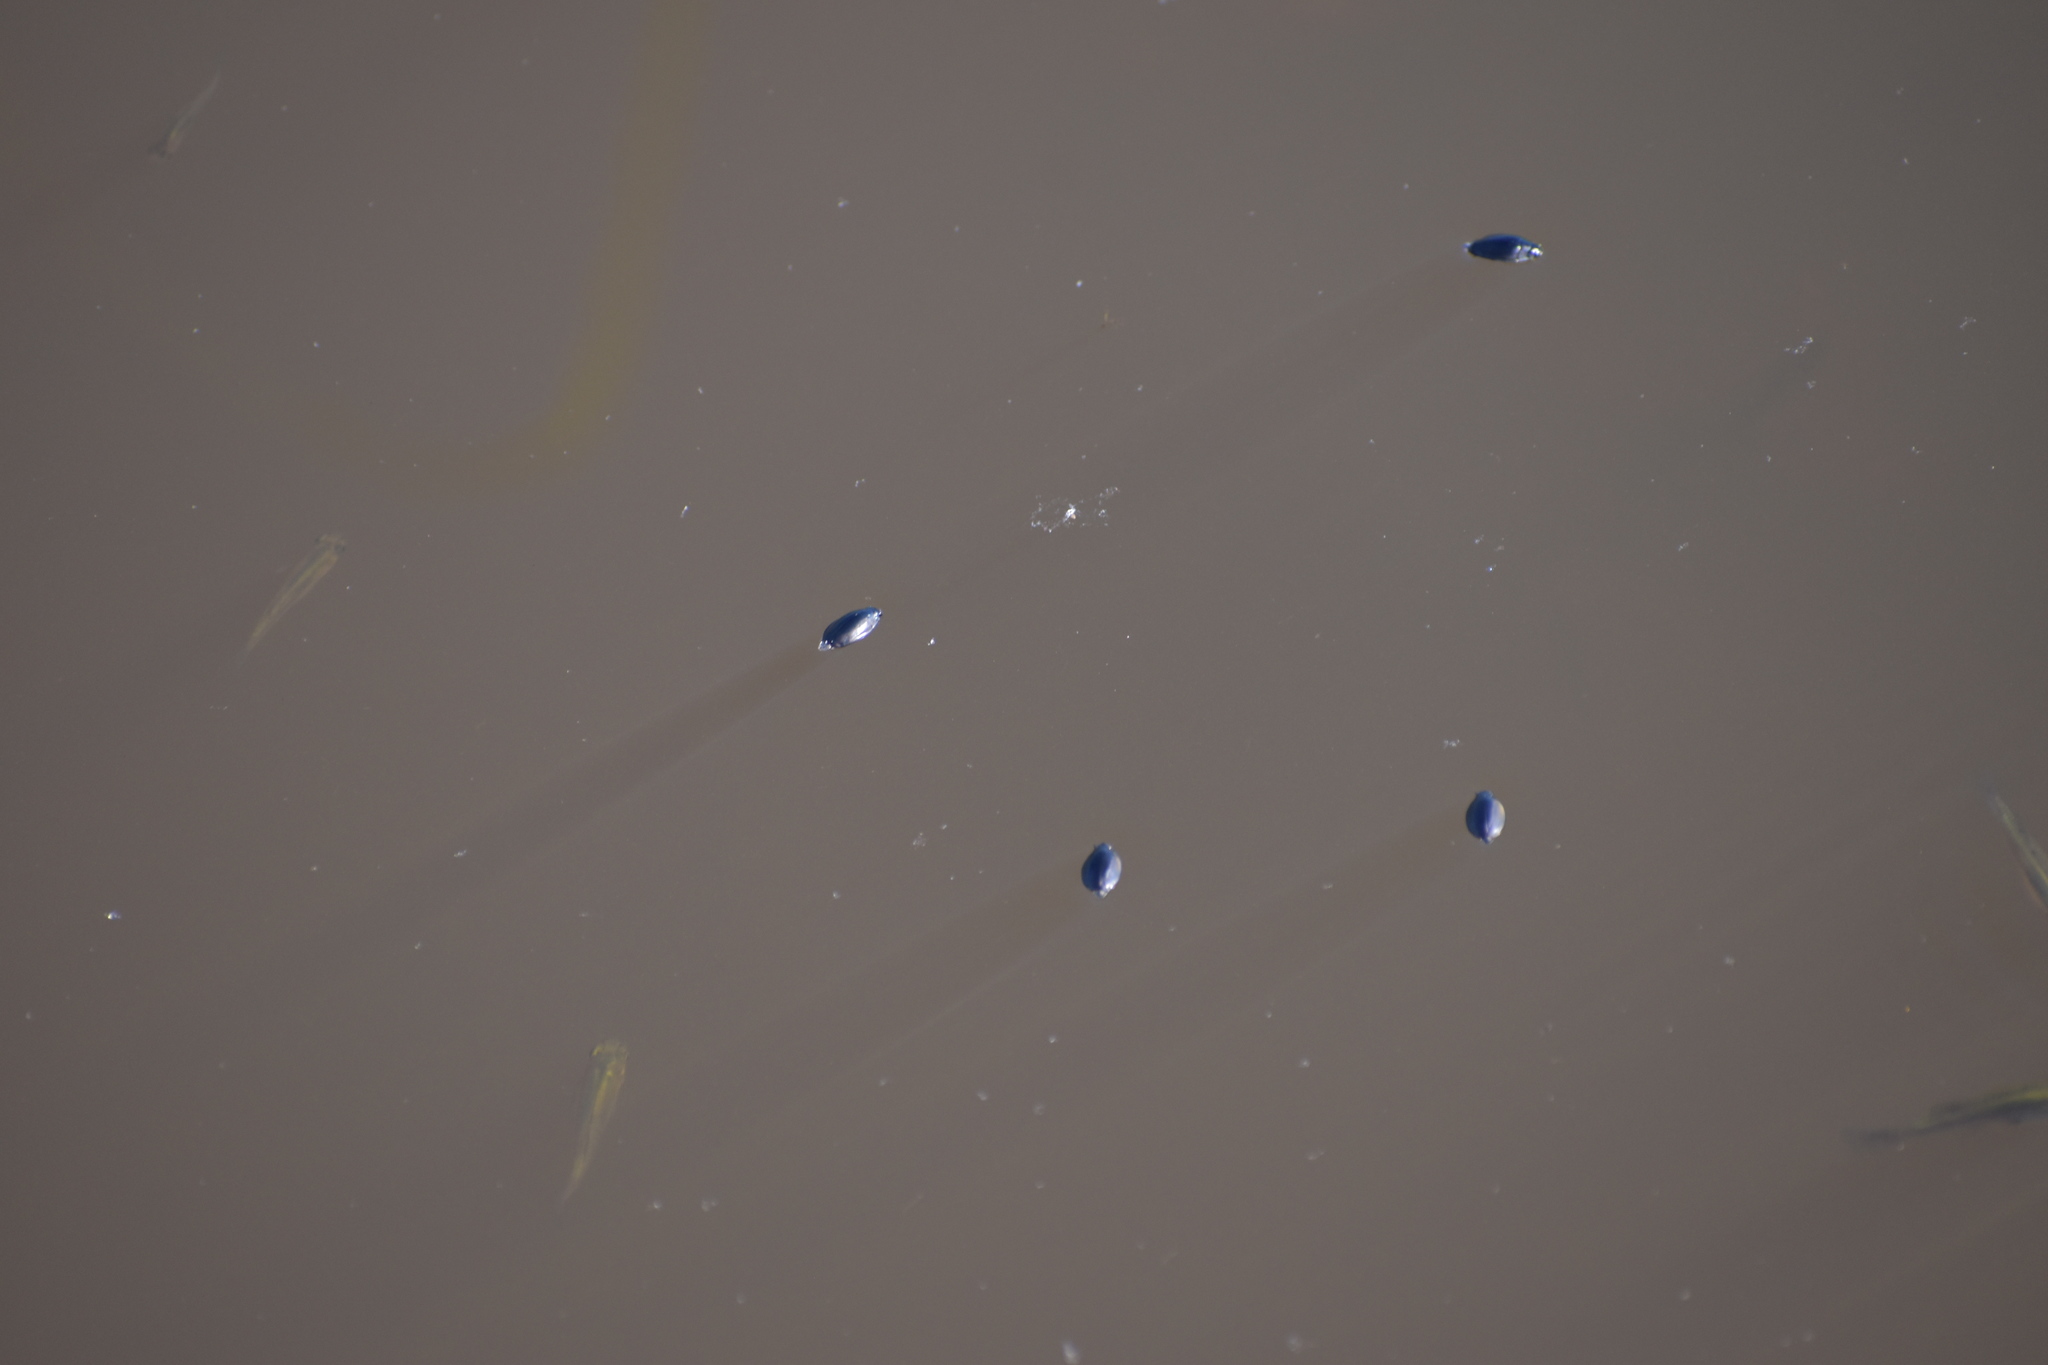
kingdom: Animalia
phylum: Arthropoda
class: Insecta
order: Coleoptera
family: Gyrinidae
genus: Dineutus
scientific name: Dineutus
